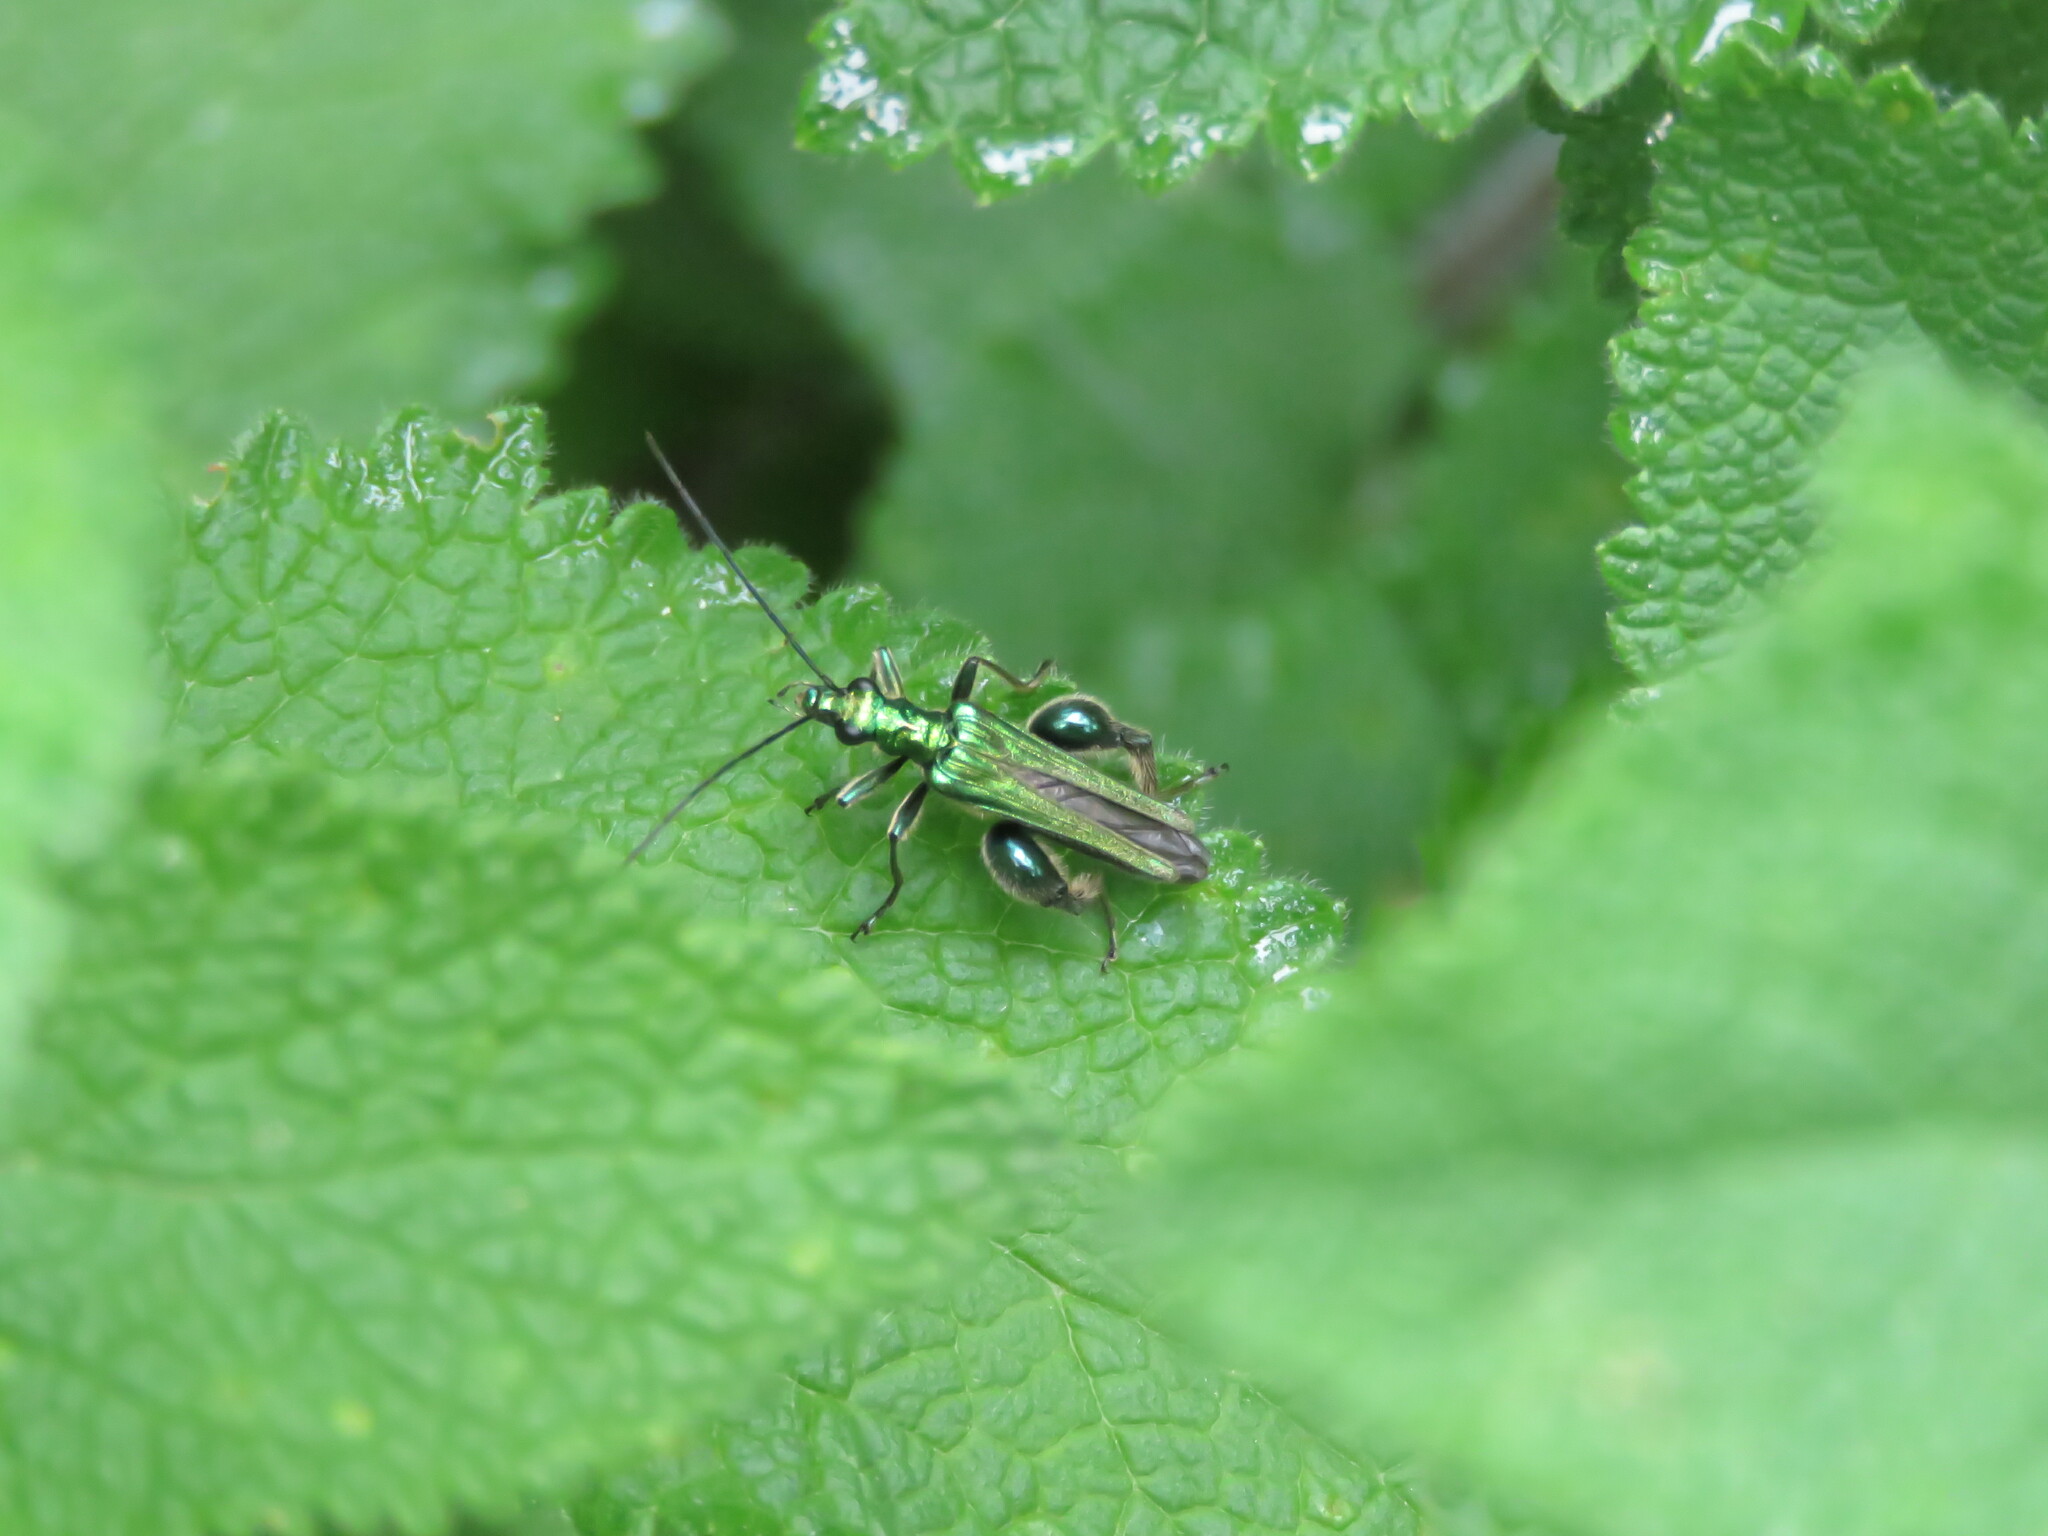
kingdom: Animalia
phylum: Arthropoda
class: Insecta
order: Coleoptera
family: Oedemeridae
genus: Oedemera
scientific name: Oedemera nobilis
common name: Swollen-thighed beetle
